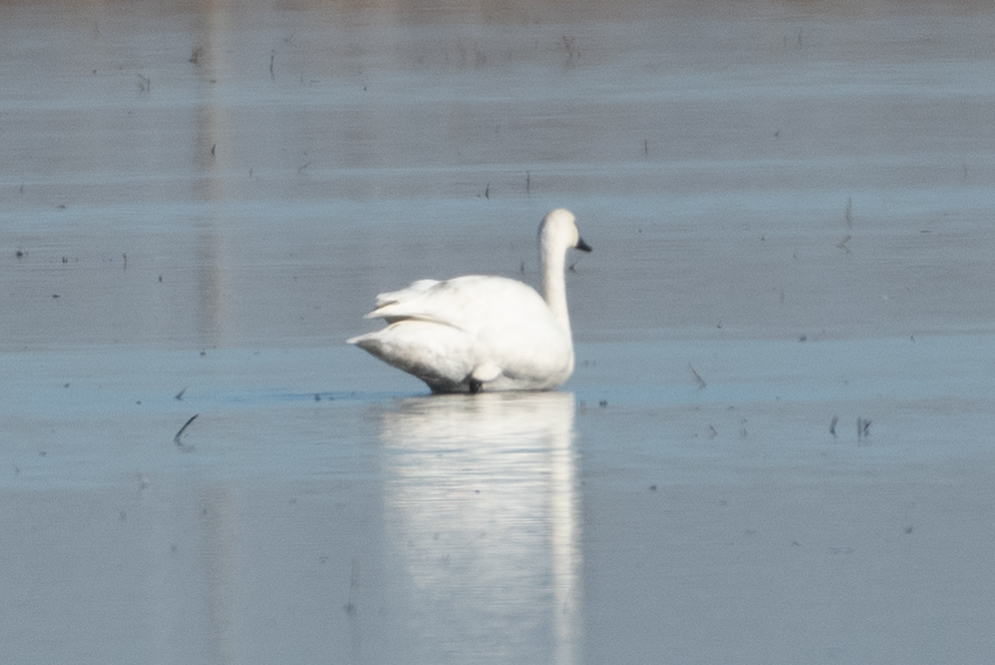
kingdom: Animalia
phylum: Chordata
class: Aves
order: Anseriformes
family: Anatidae
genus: Cygnus
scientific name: Cygnus columbianus
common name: Tundra swan
